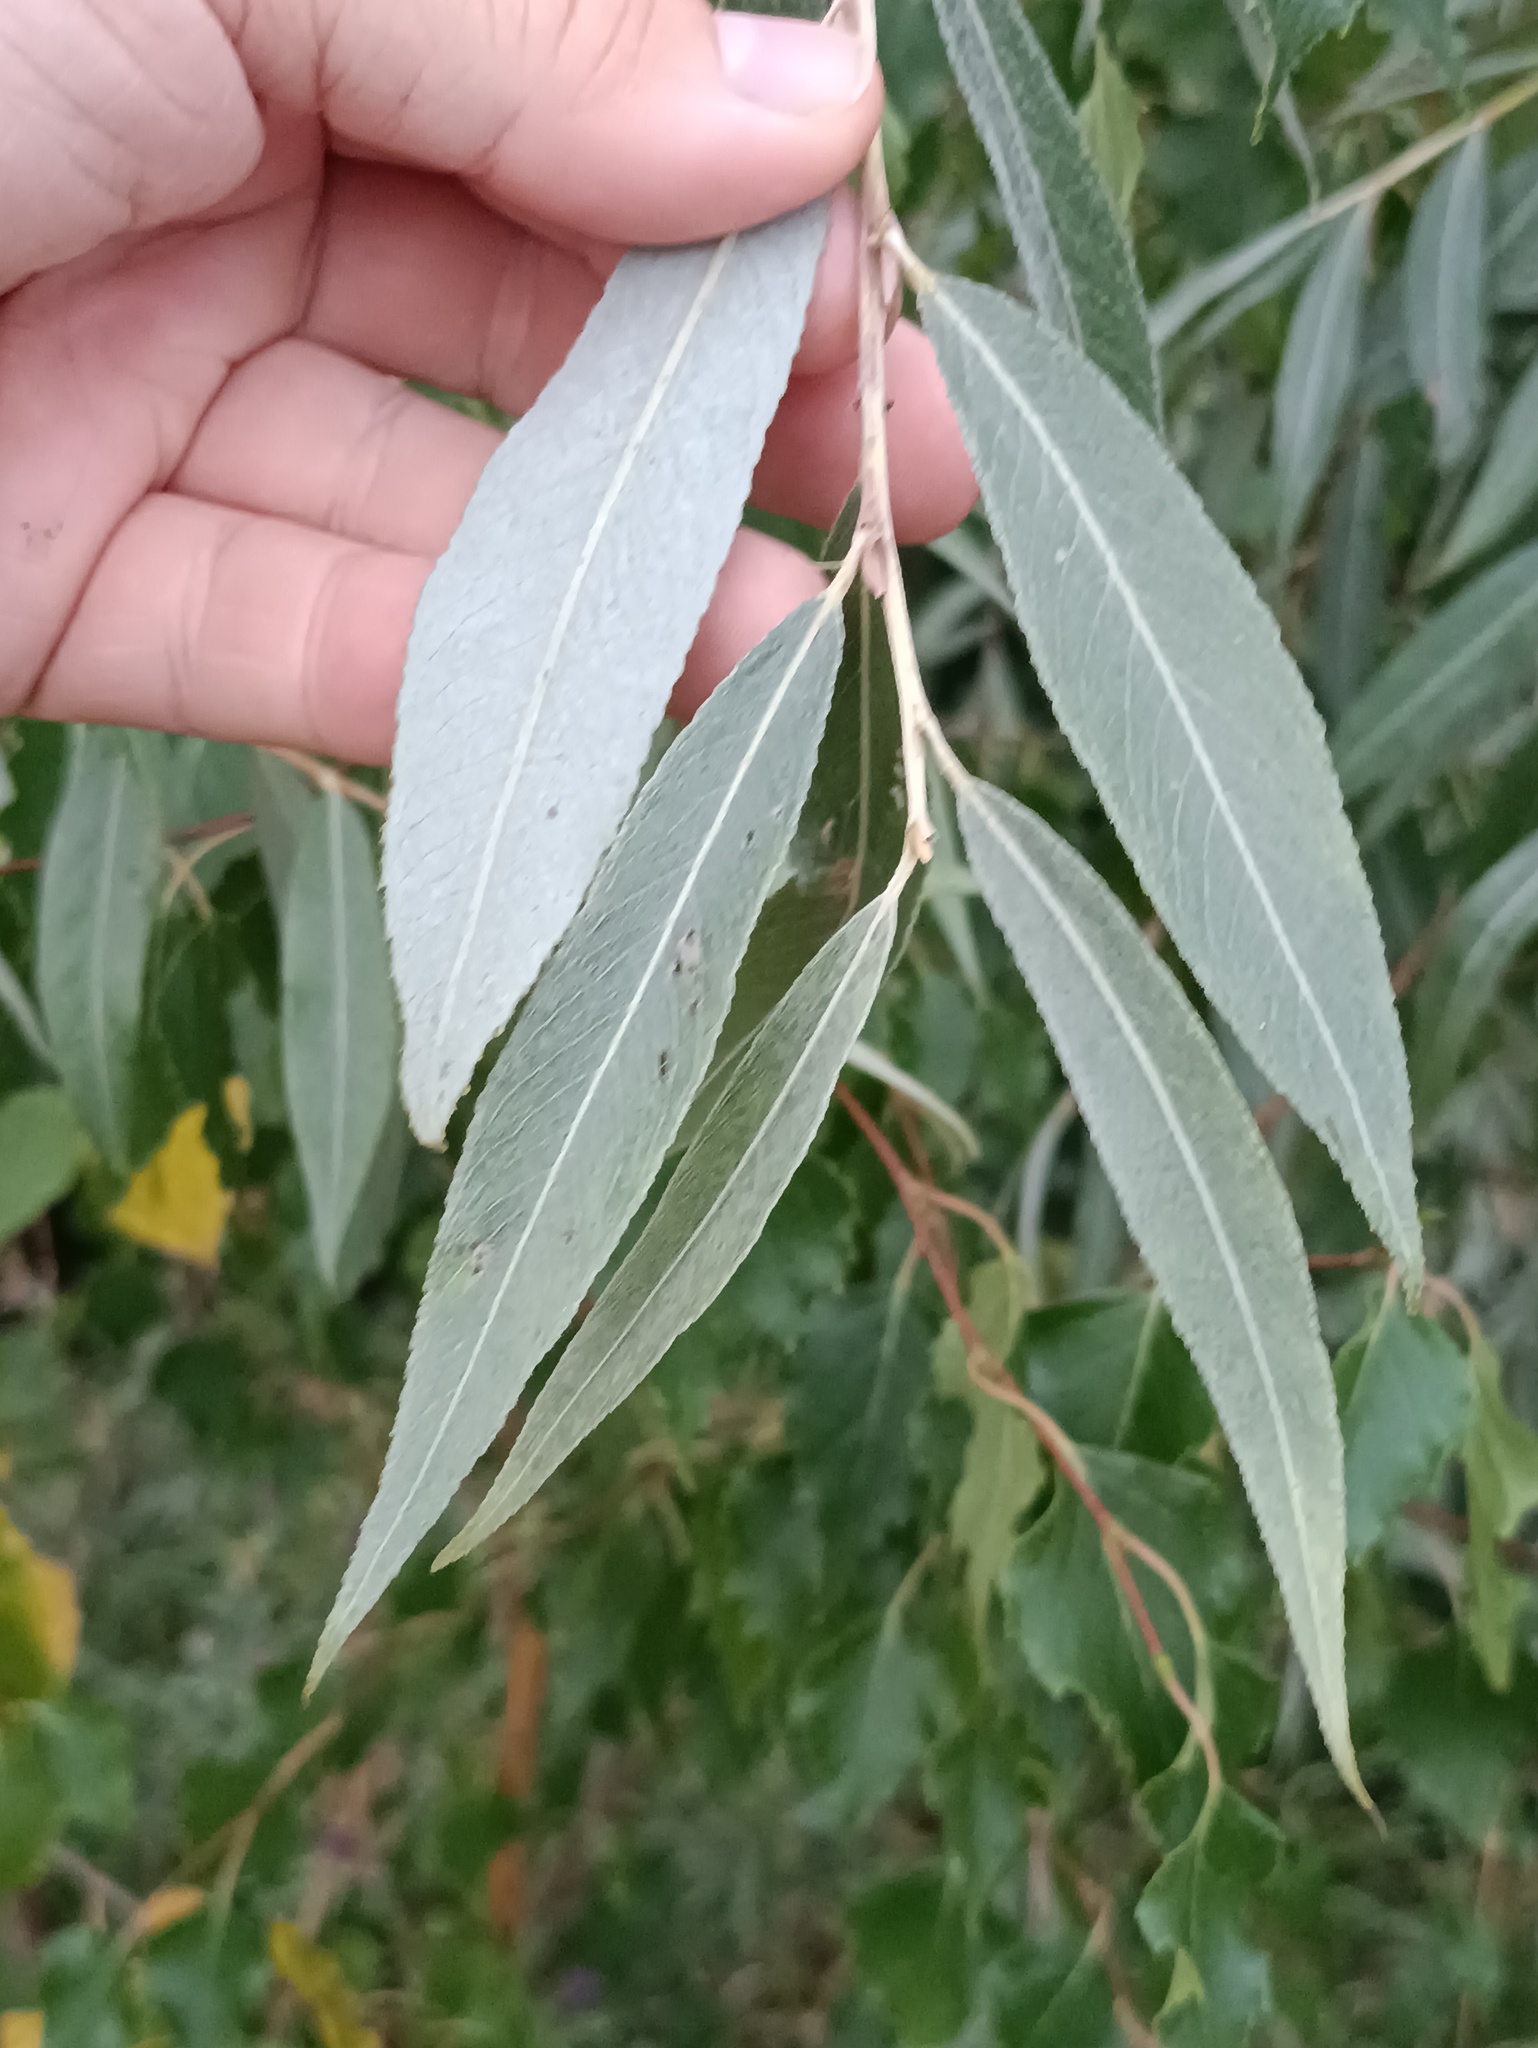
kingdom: Plantae
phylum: Tracheophyta
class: Magnoliopsida
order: Malpighiales
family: Salicaceae
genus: Salix
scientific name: Salix alba
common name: White willow
